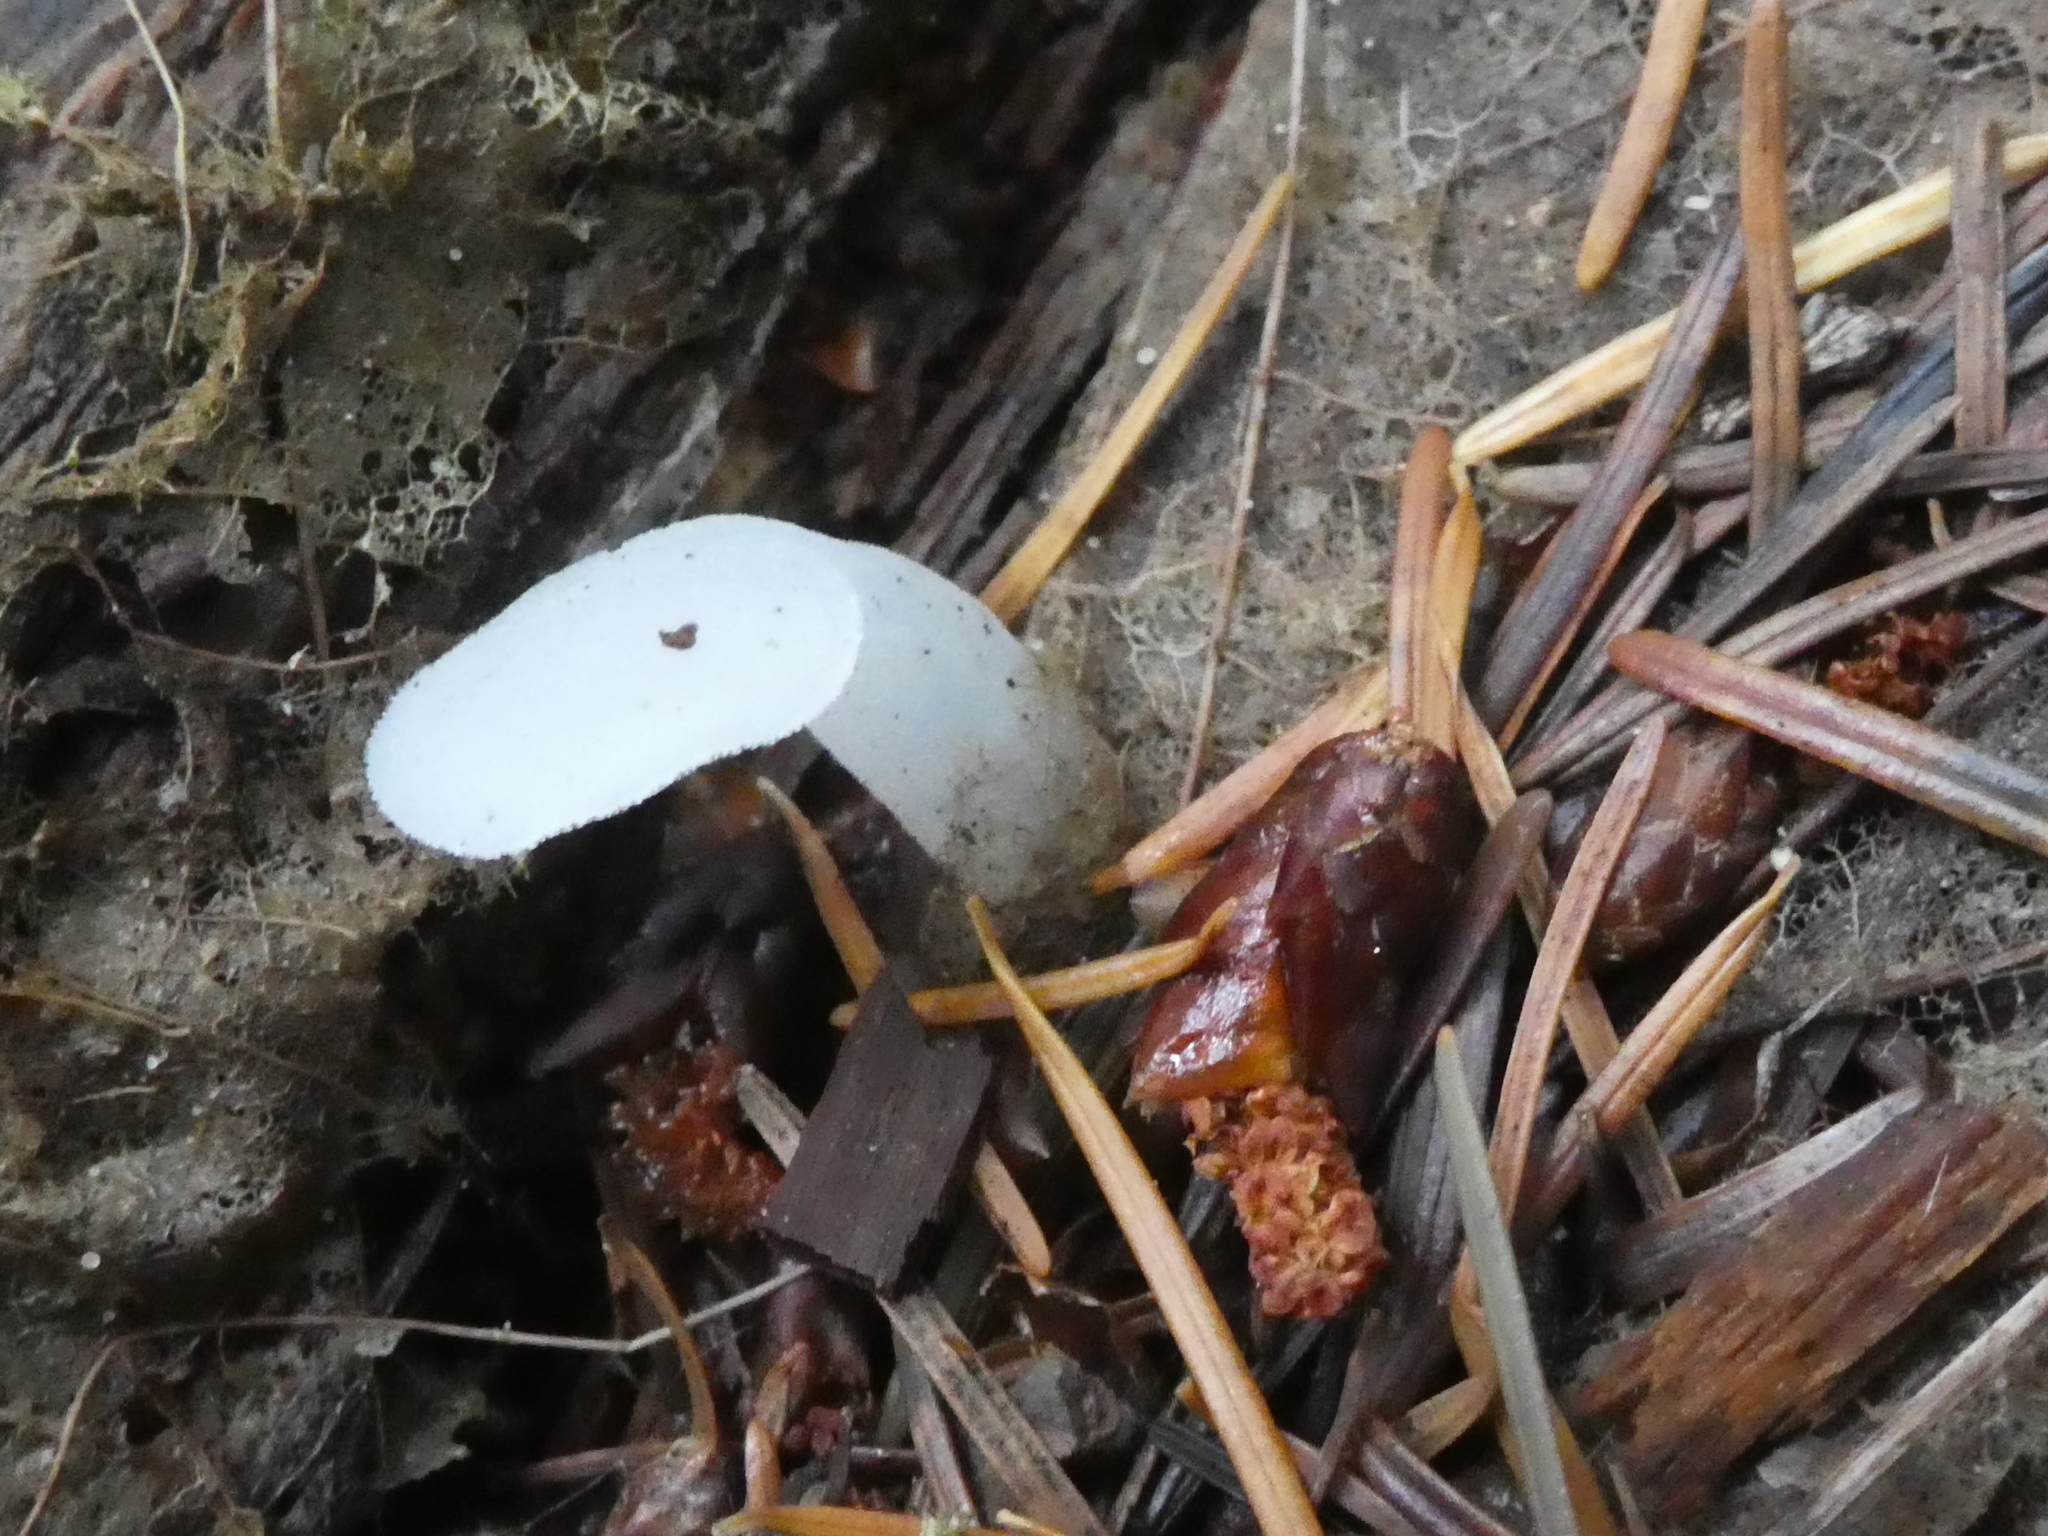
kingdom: Fungi
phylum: Basidiomycota
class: Agaricomycetes
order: Auriculariales
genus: Pseudohydnum
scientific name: Pseudohydnum gelatinosum
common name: Jelly tongue
